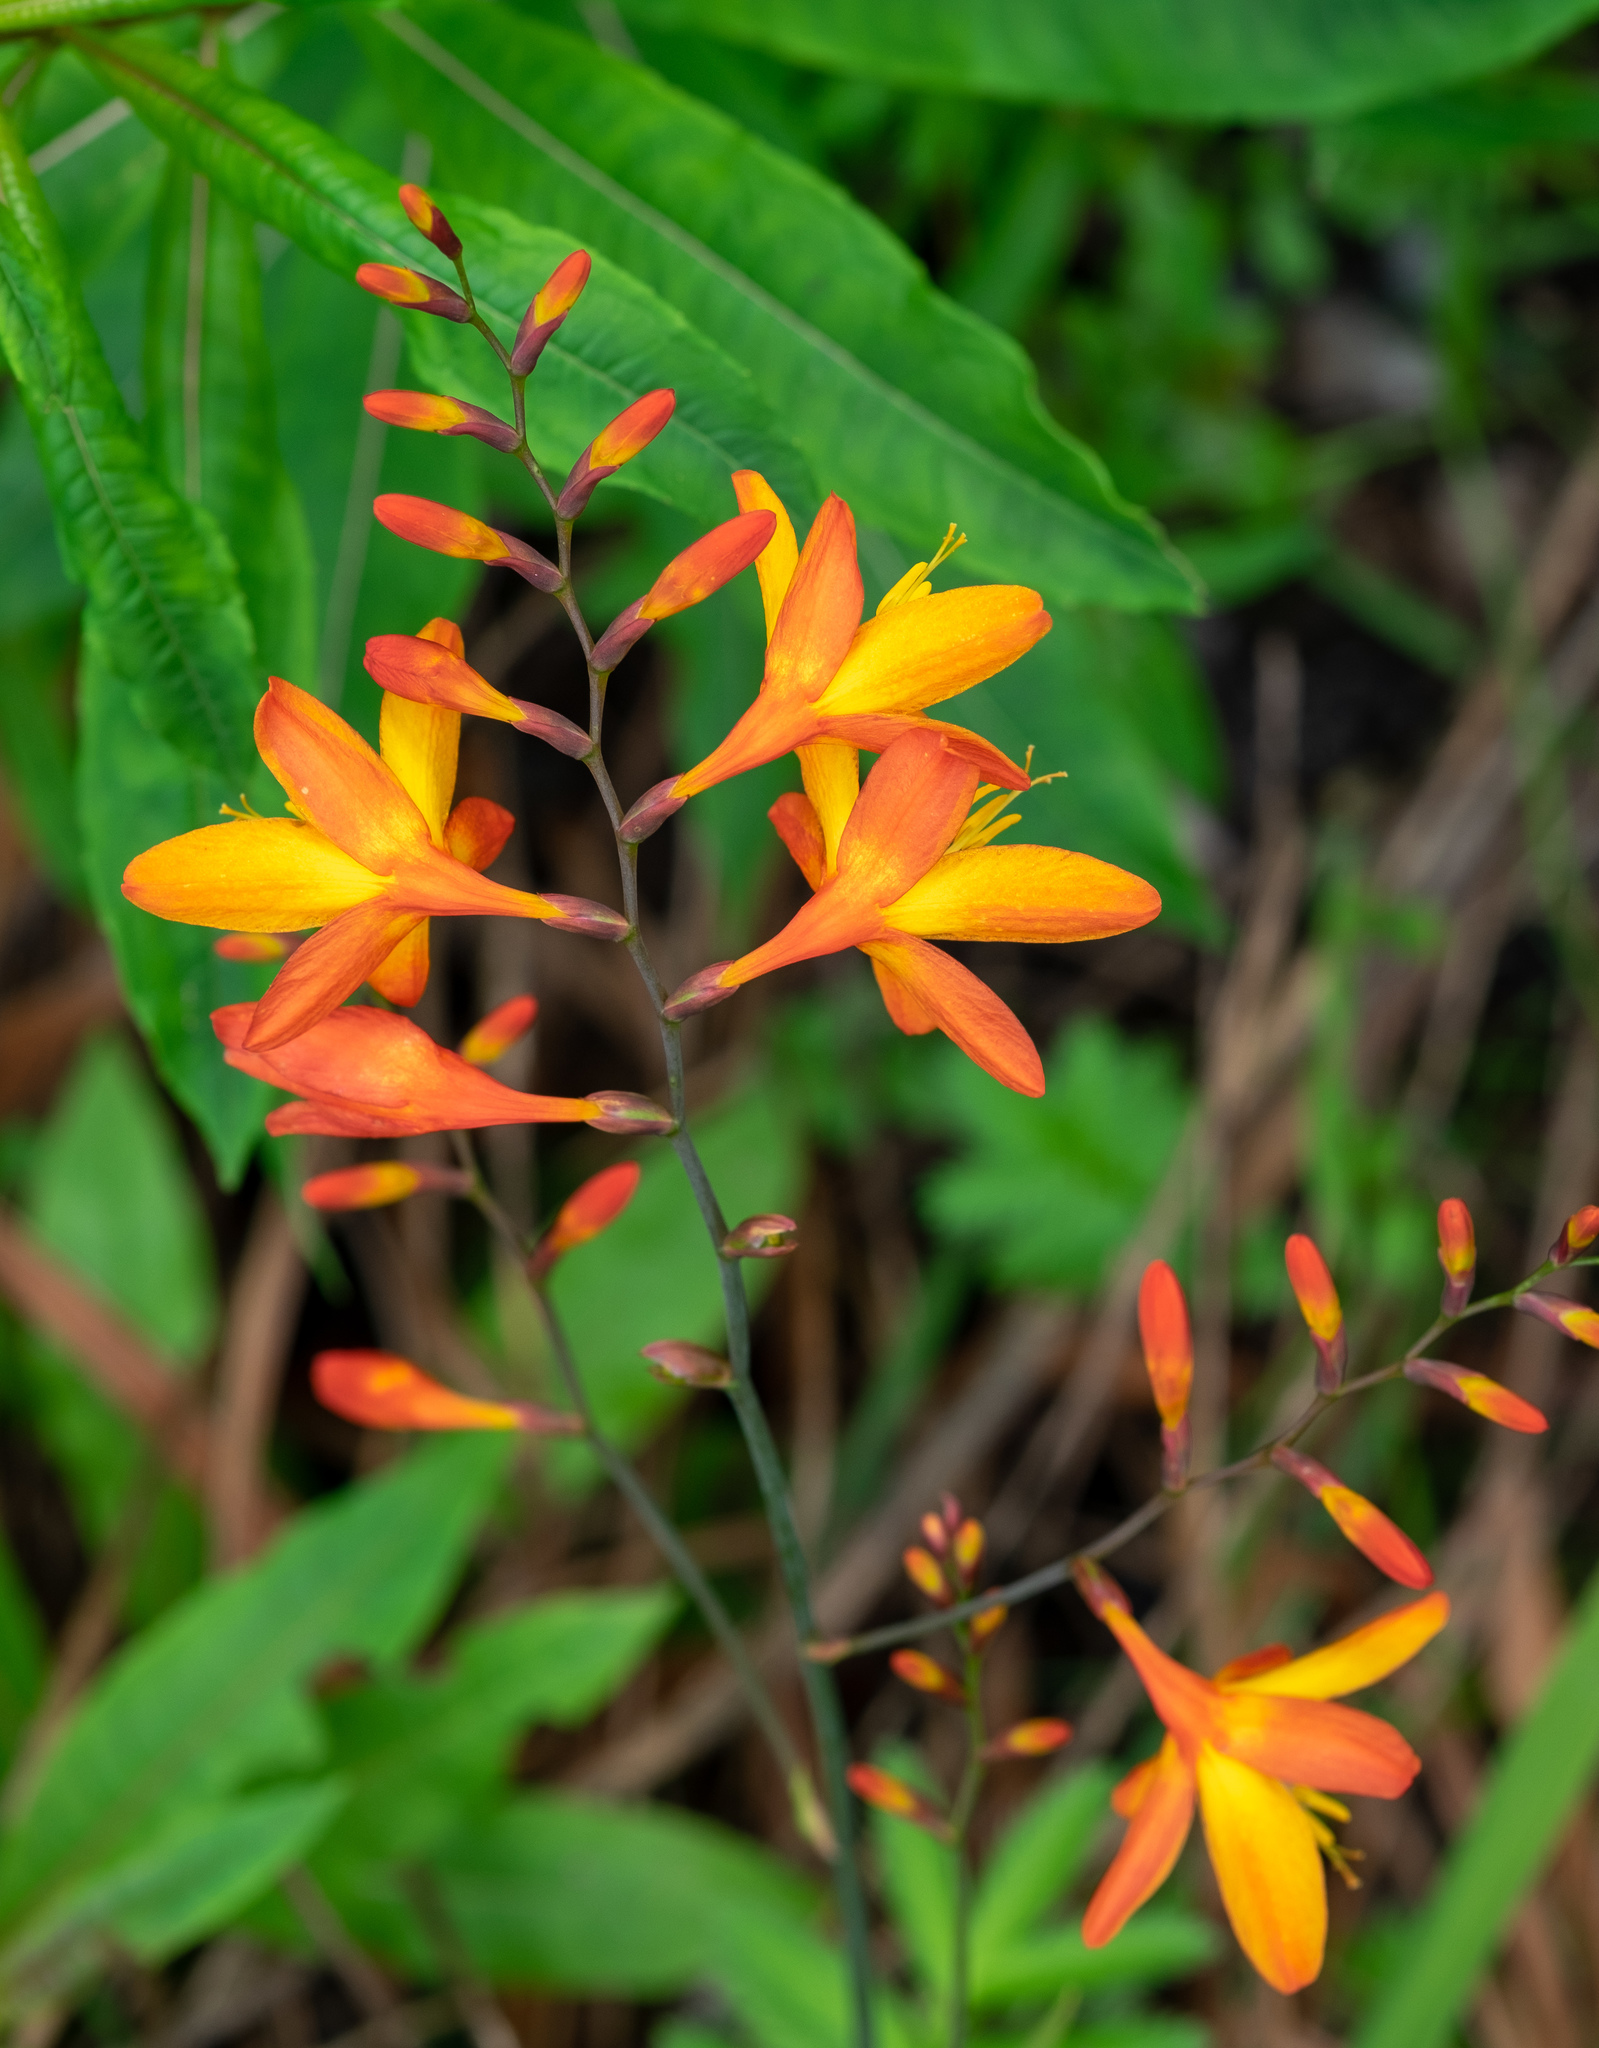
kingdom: Plantae
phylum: Tracheophyta
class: Liliopsida
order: Asparagales
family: Iridaceae
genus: Crocosmia
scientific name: Crocosmia crocosmiiflora
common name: Montbretia
